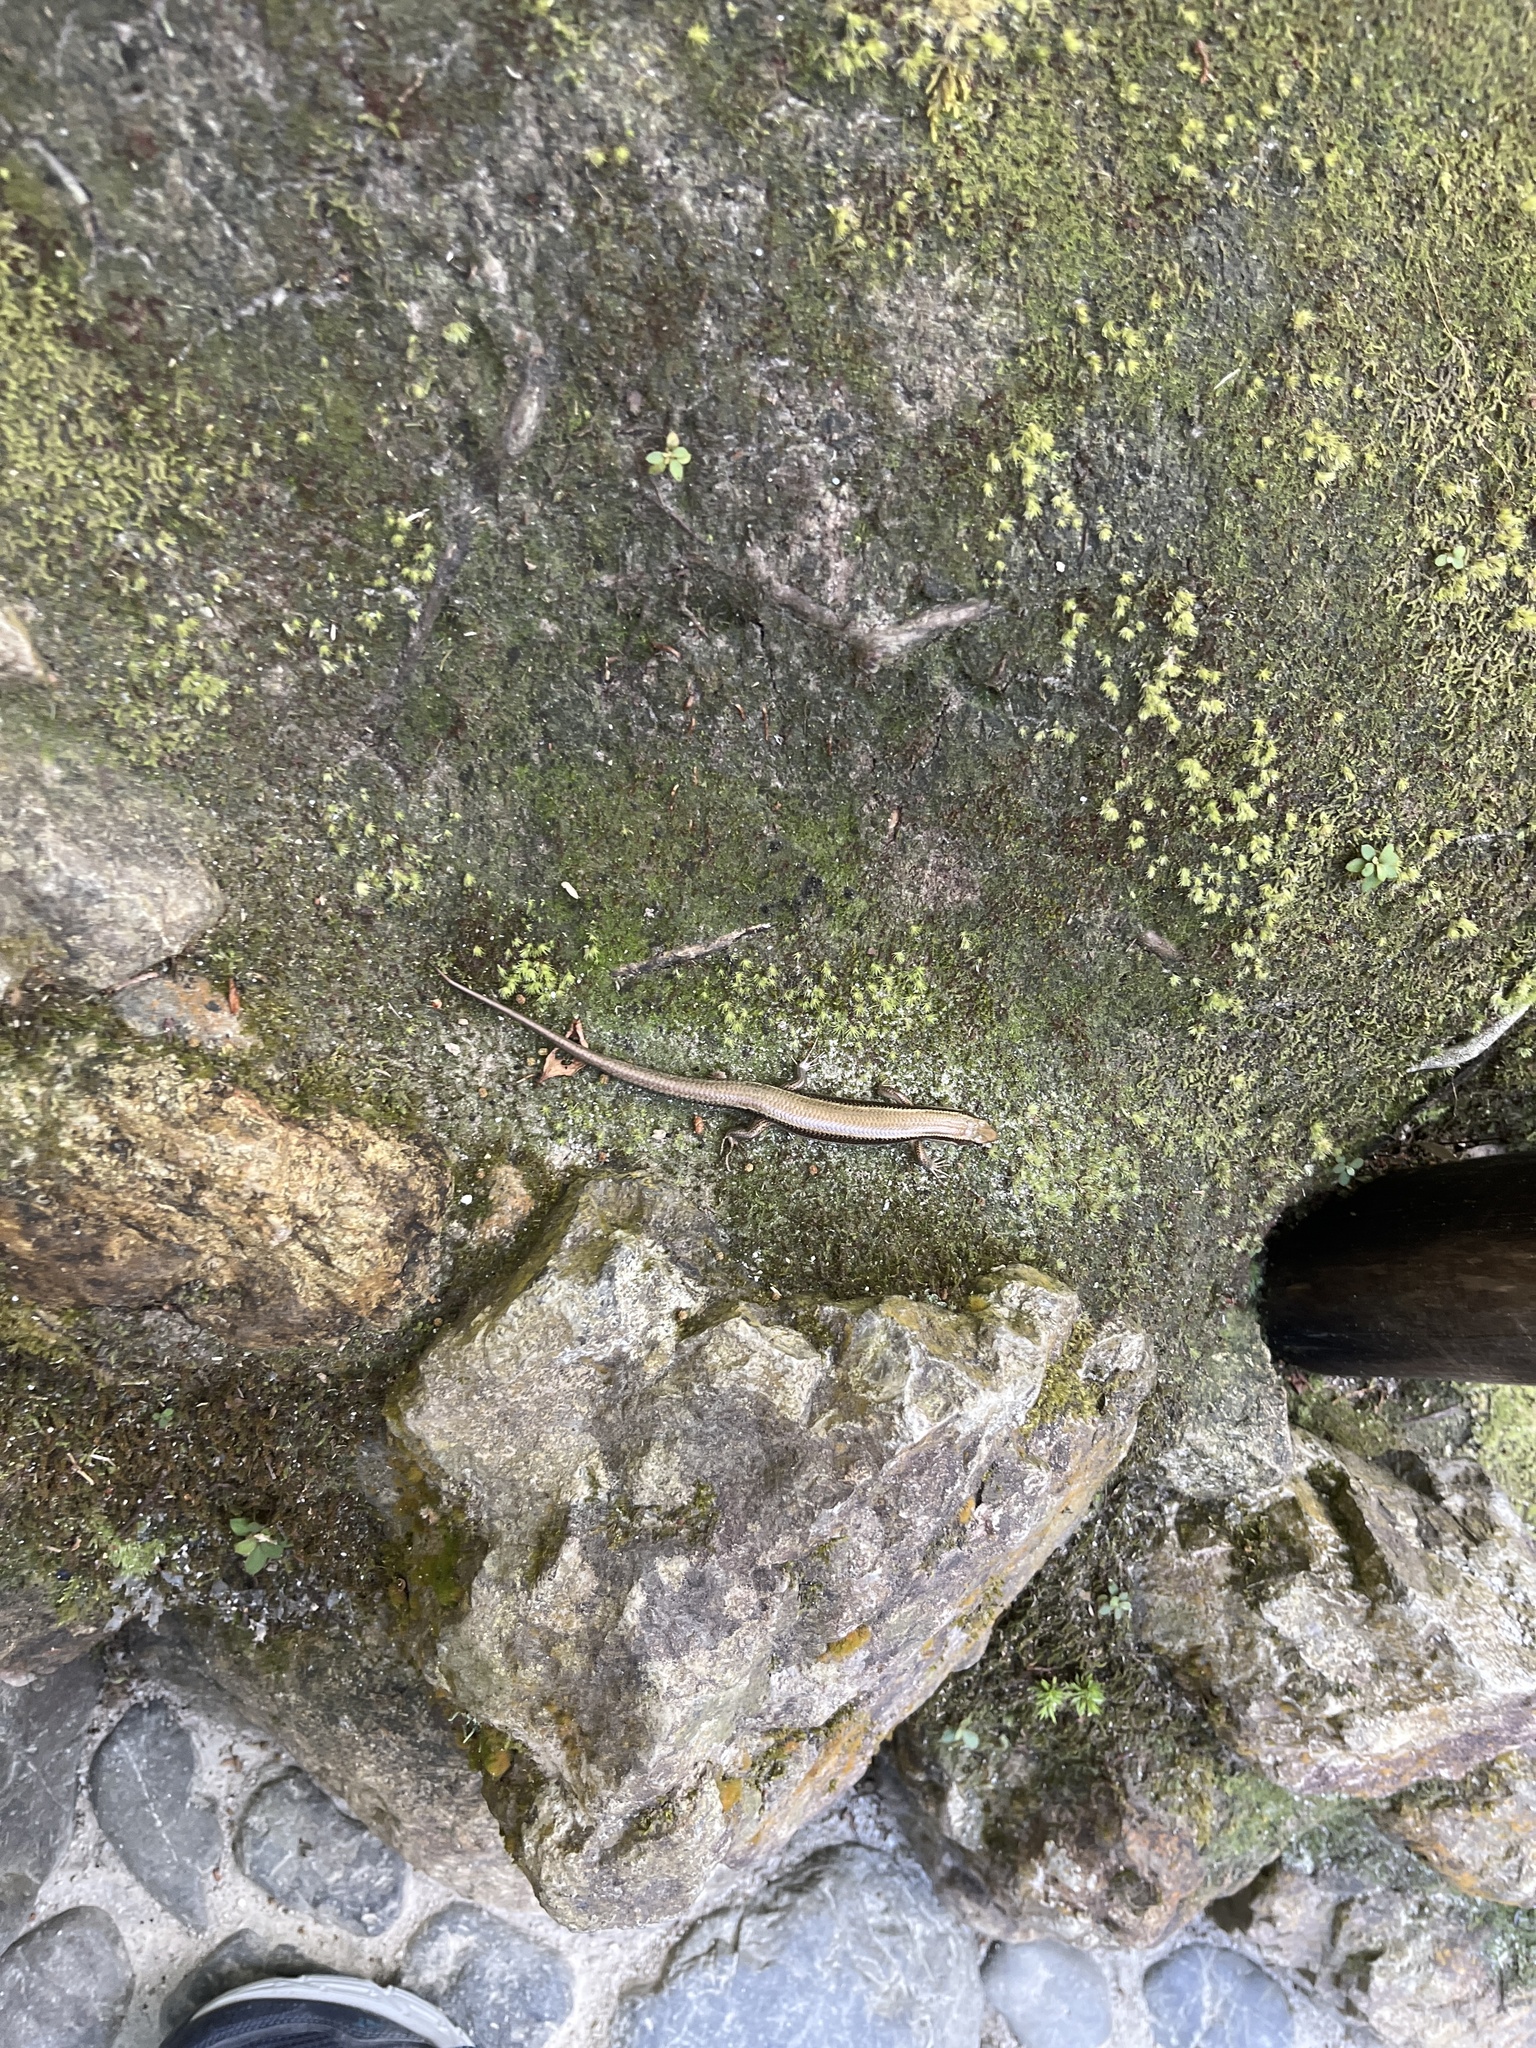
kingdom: Animalia
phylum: Chordata
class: Squamata
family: Scincidae
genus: Plestiodon
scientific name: Plestiodon japonicus
